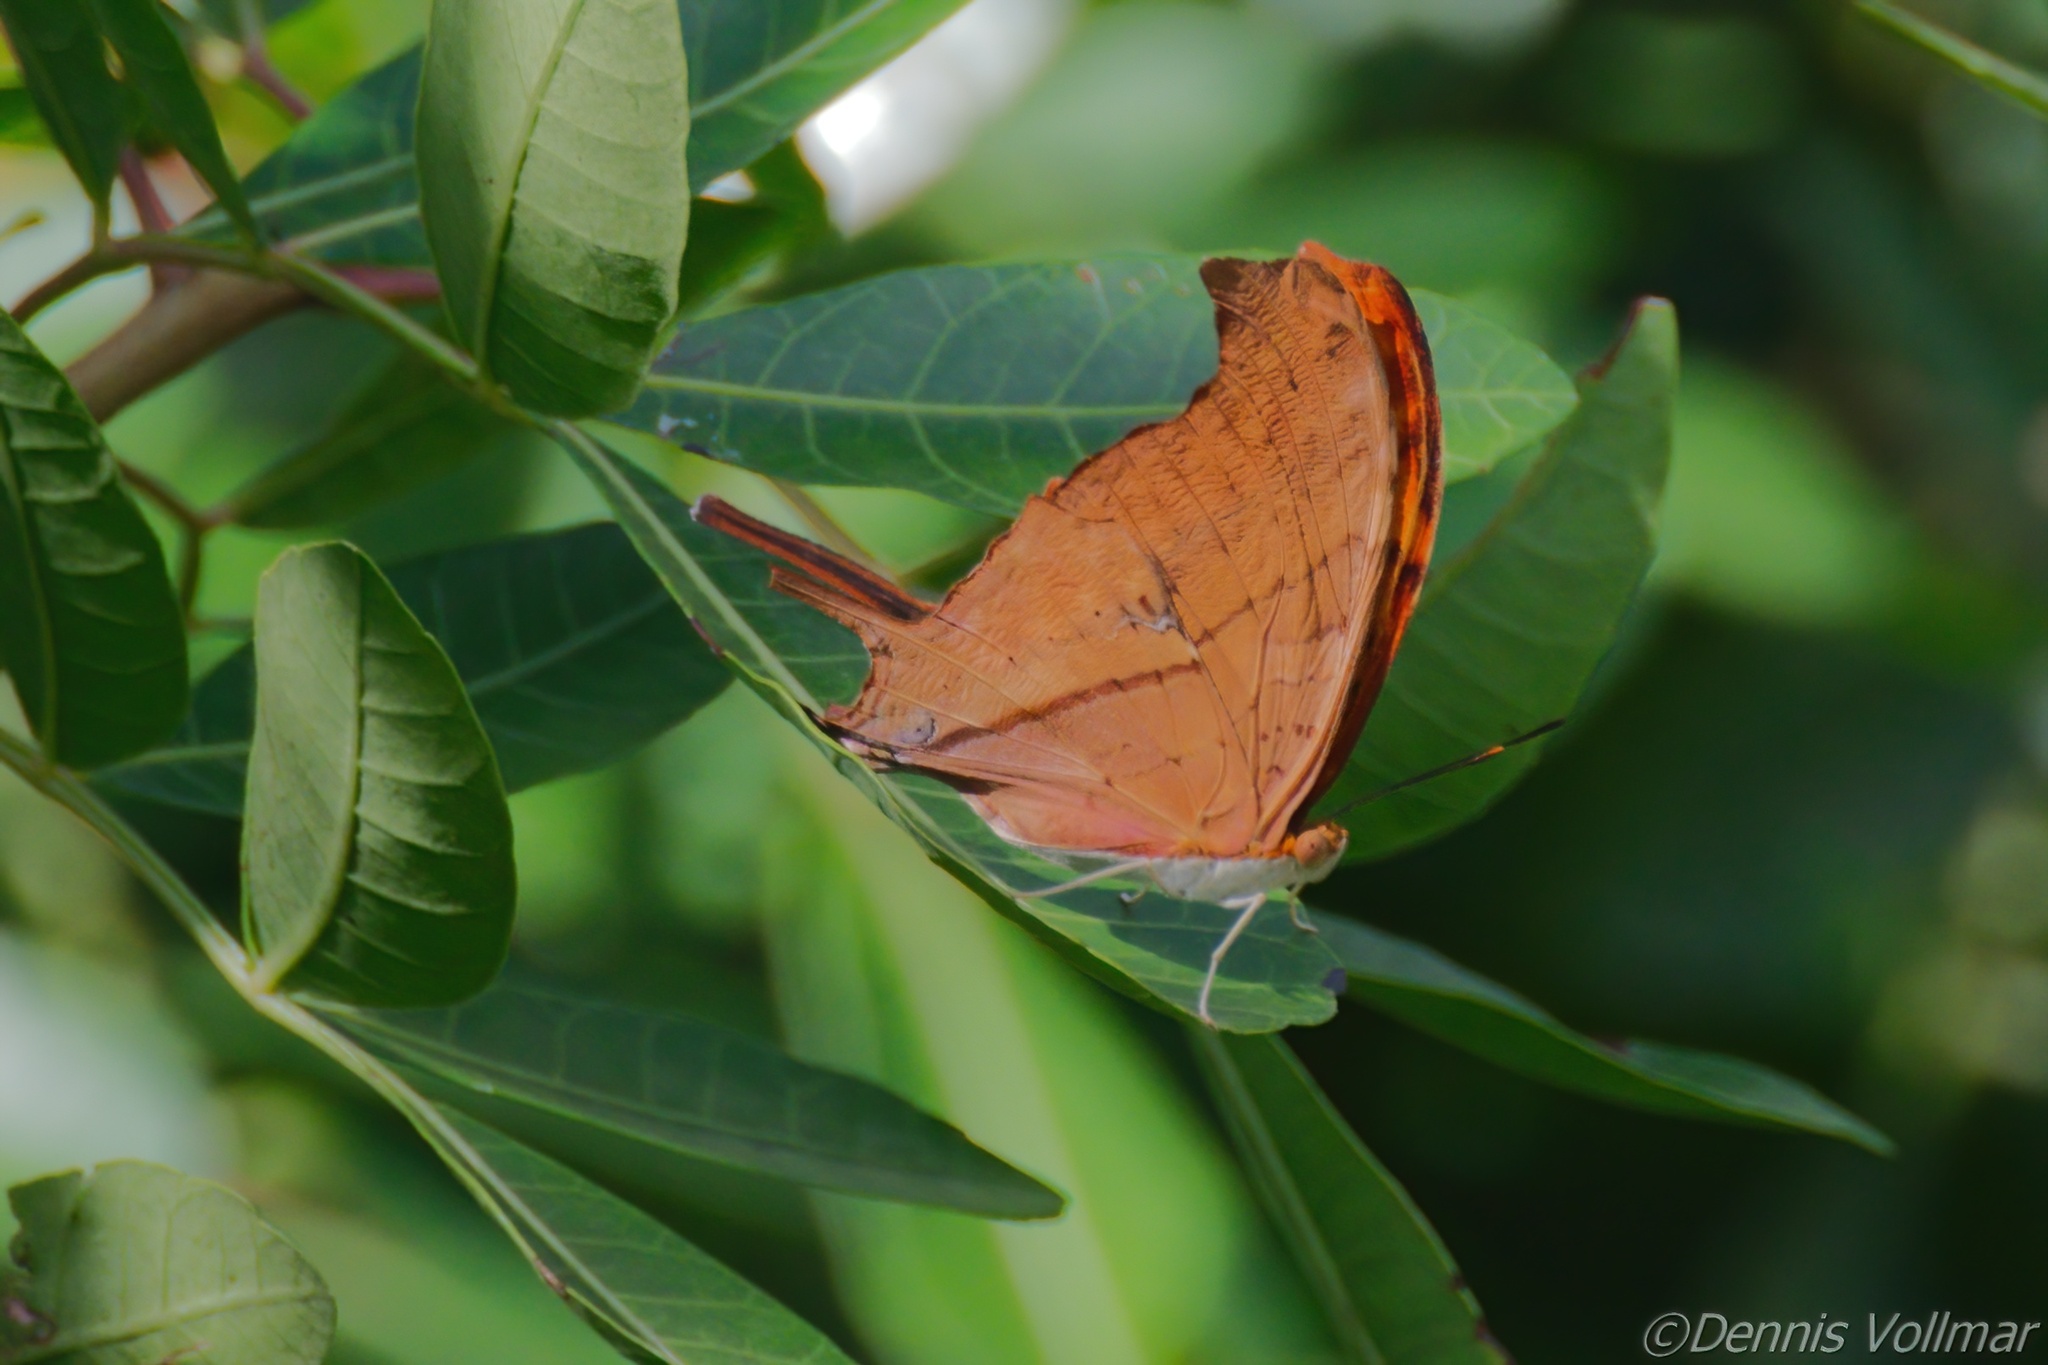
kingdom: Animalia
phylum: Arthropoda
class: Insecta
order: Lepidoptera
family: Nymphalidae
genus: Marpesia
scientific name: Marpesia petreus
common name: Red dagger wing
